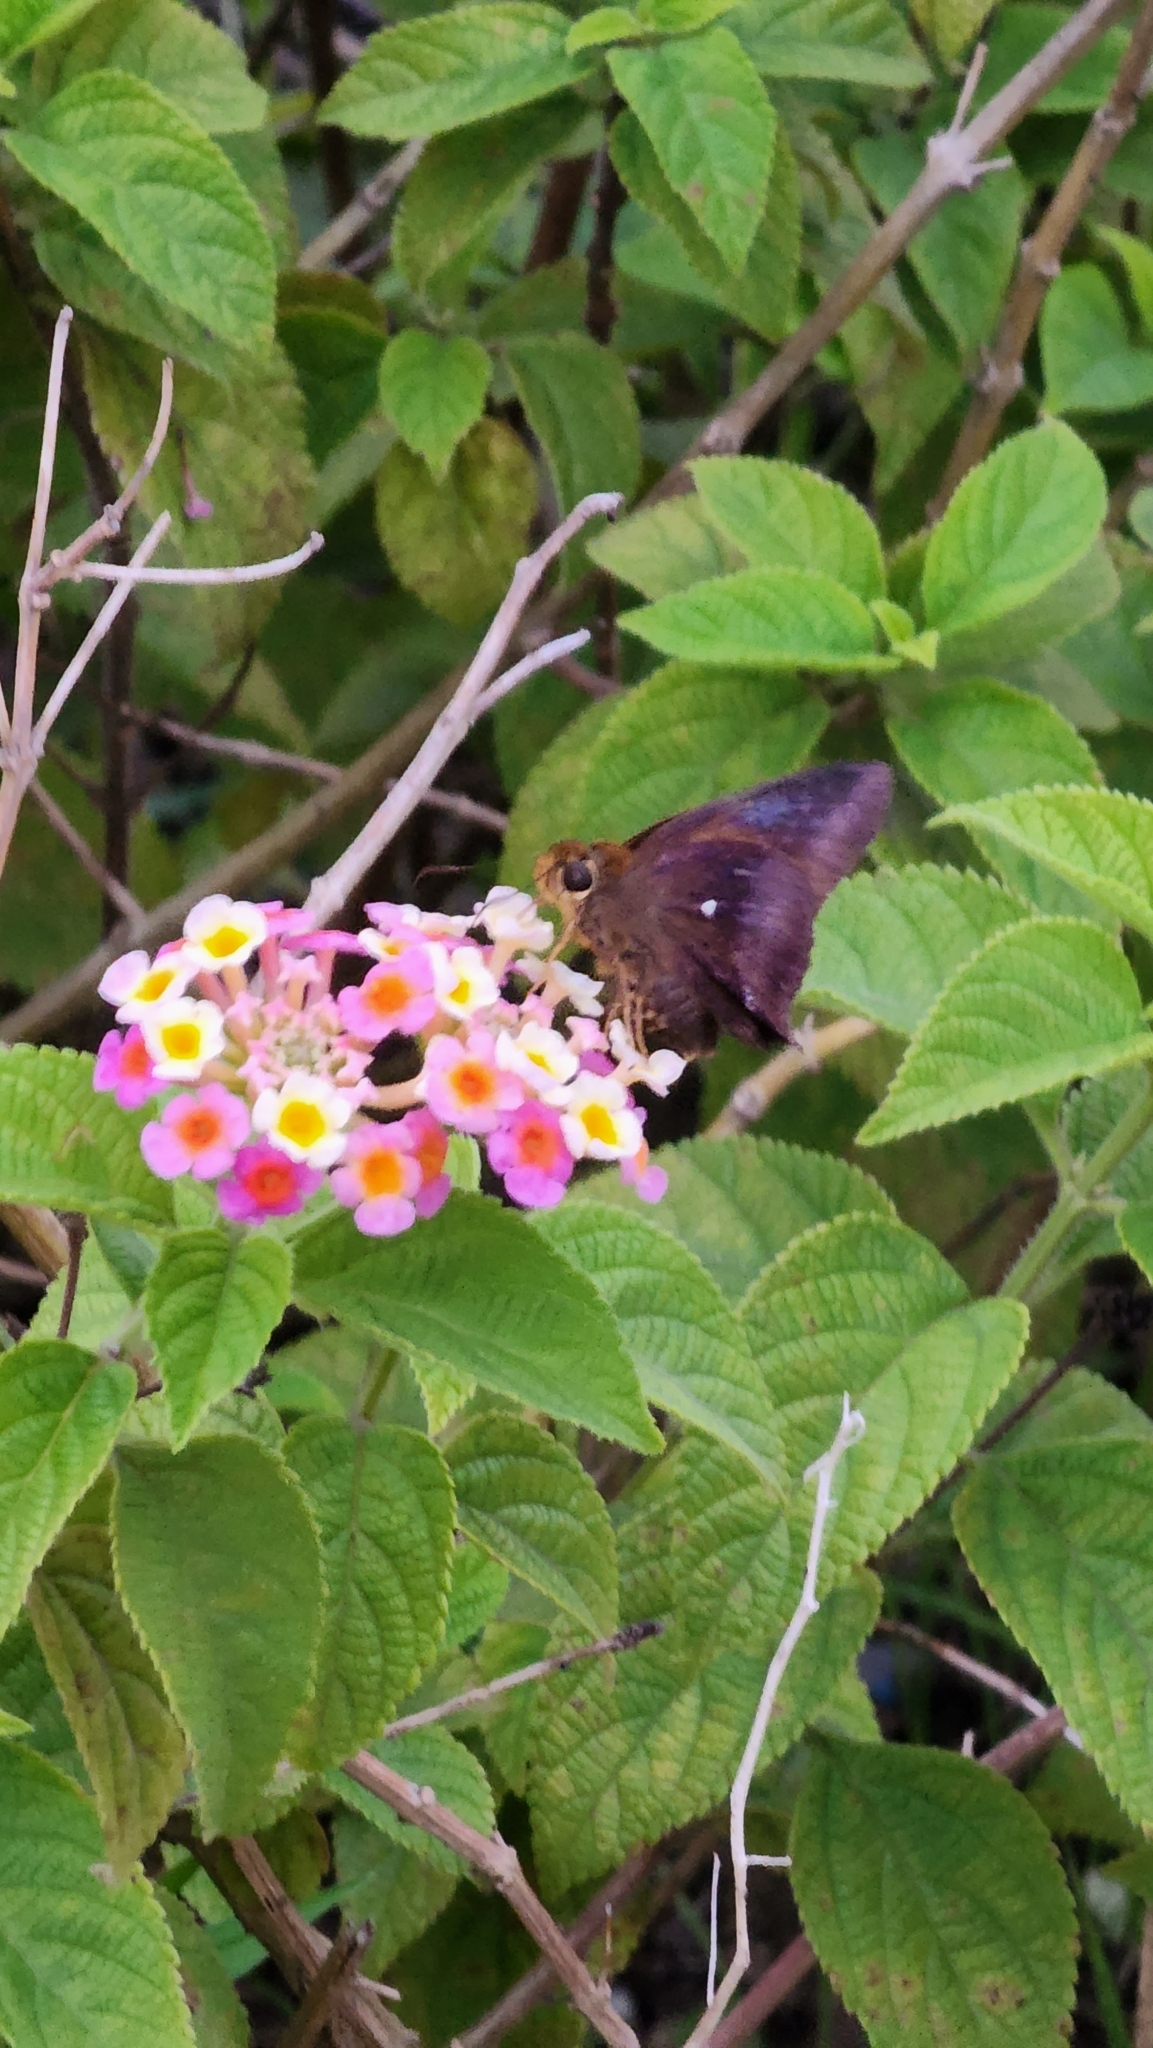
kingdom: Animalia
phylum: Arthropoda
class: Insecta
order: Lepidoptera
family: Hesperiidae
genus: Hasora
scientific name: Hasora badra
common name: Common awl
